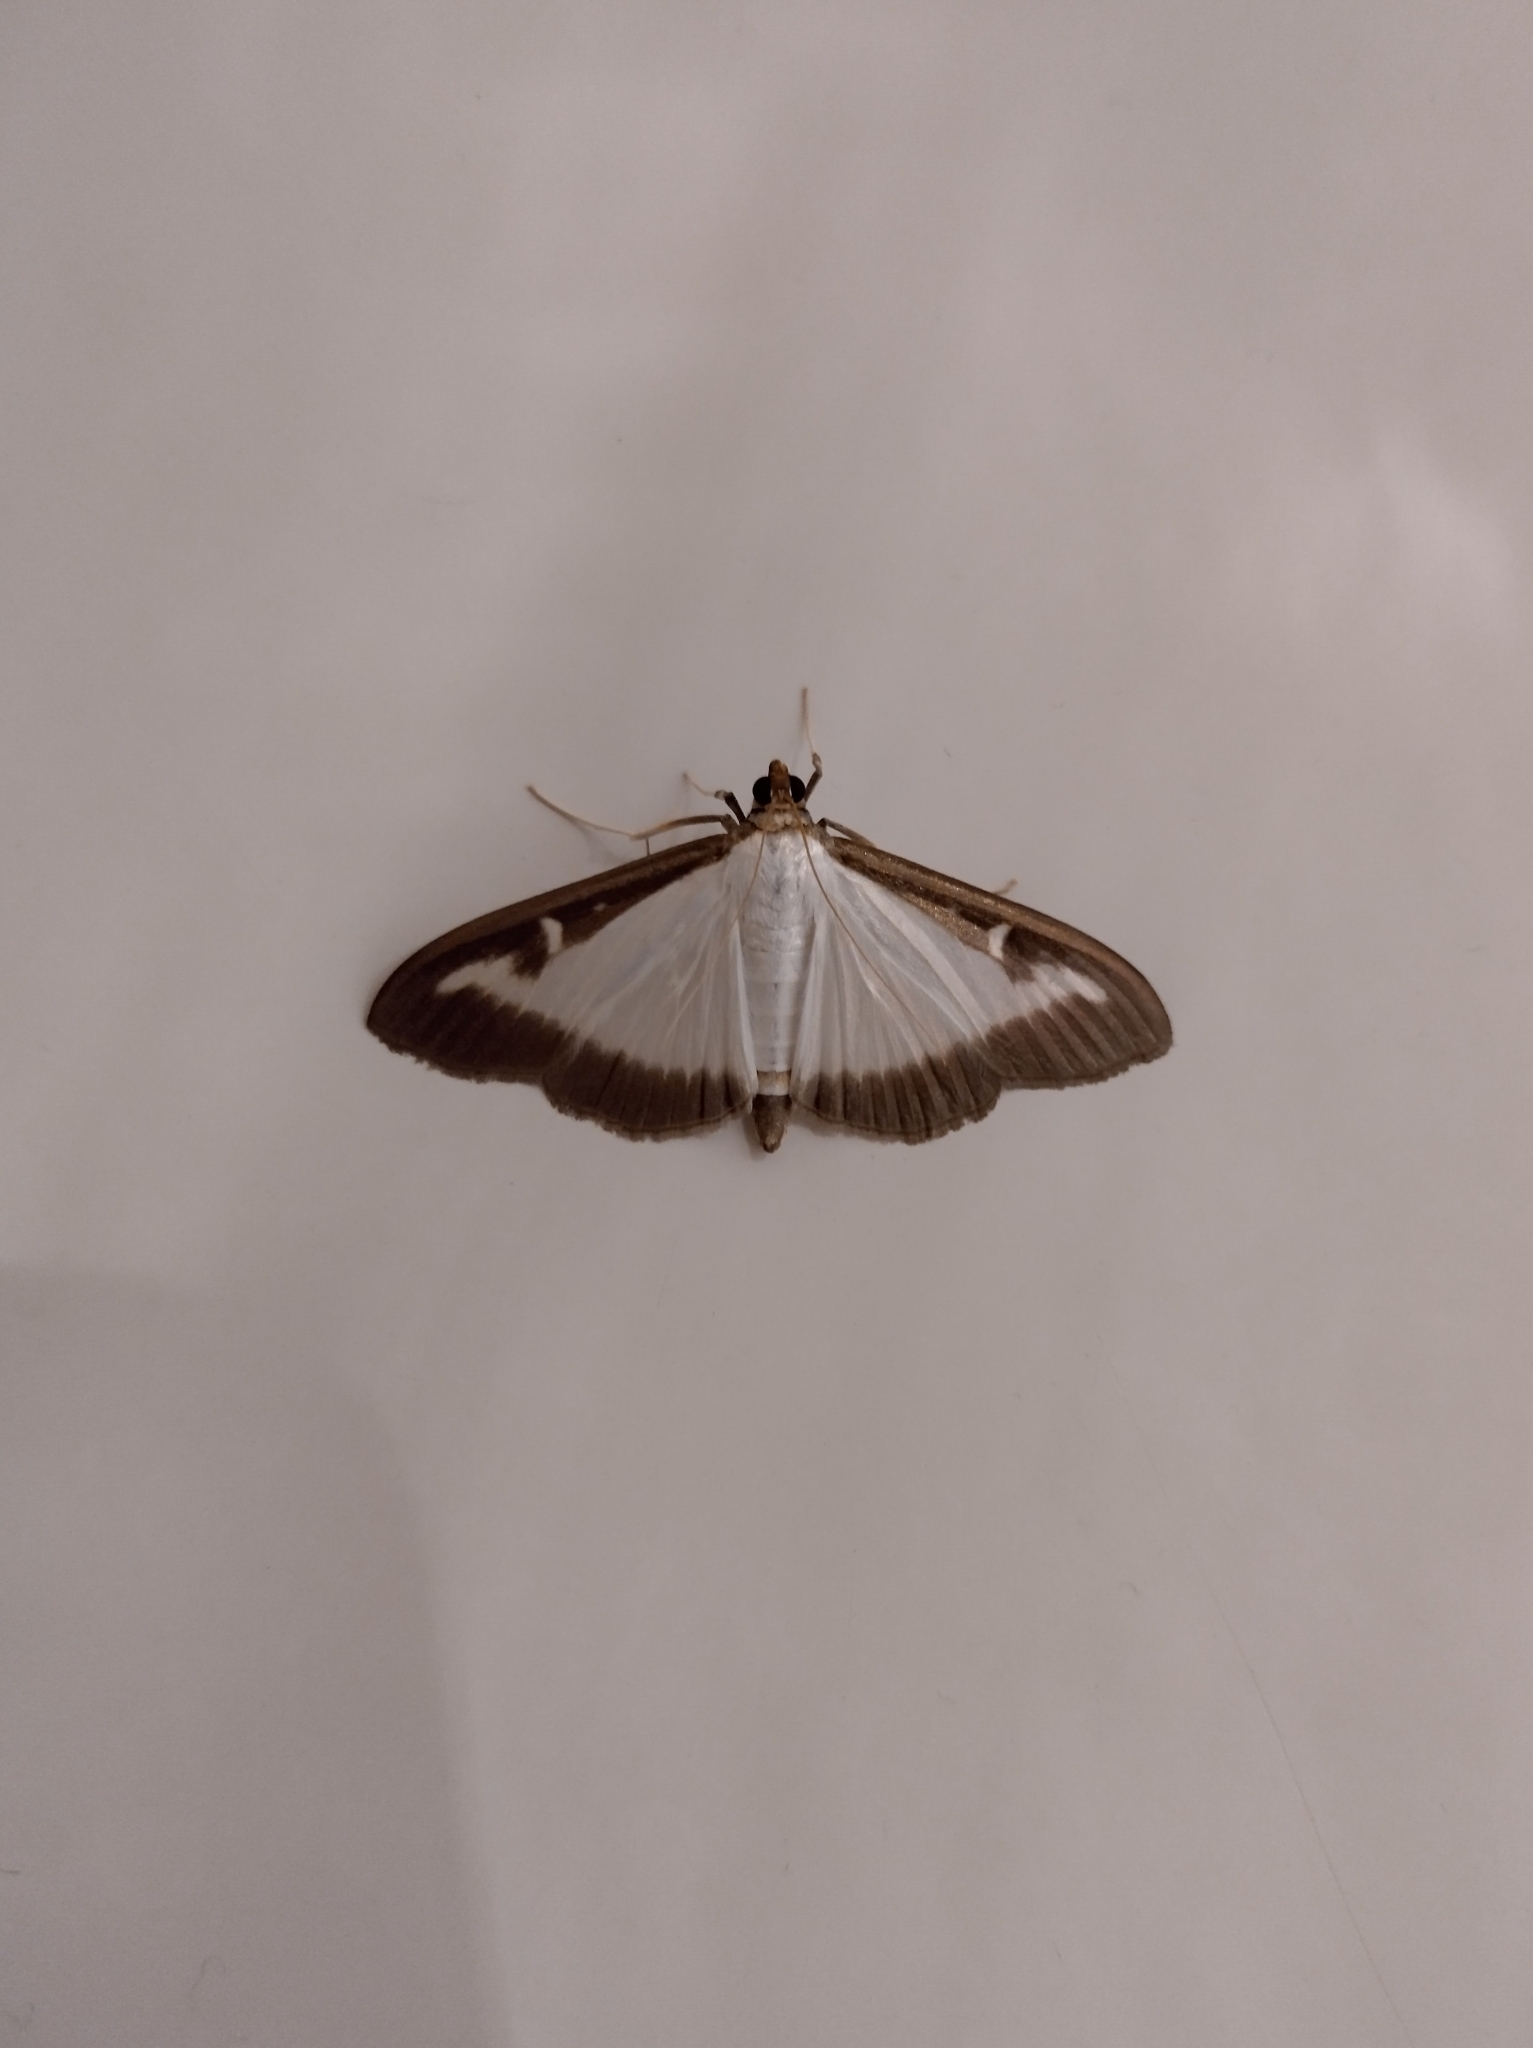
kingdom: Animalia
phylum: Arthropoda
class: Insecta
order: Lepidoptera
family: Crambidae
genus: Cydalima
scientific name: Cydalima perspectalis
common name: Box tree moth
